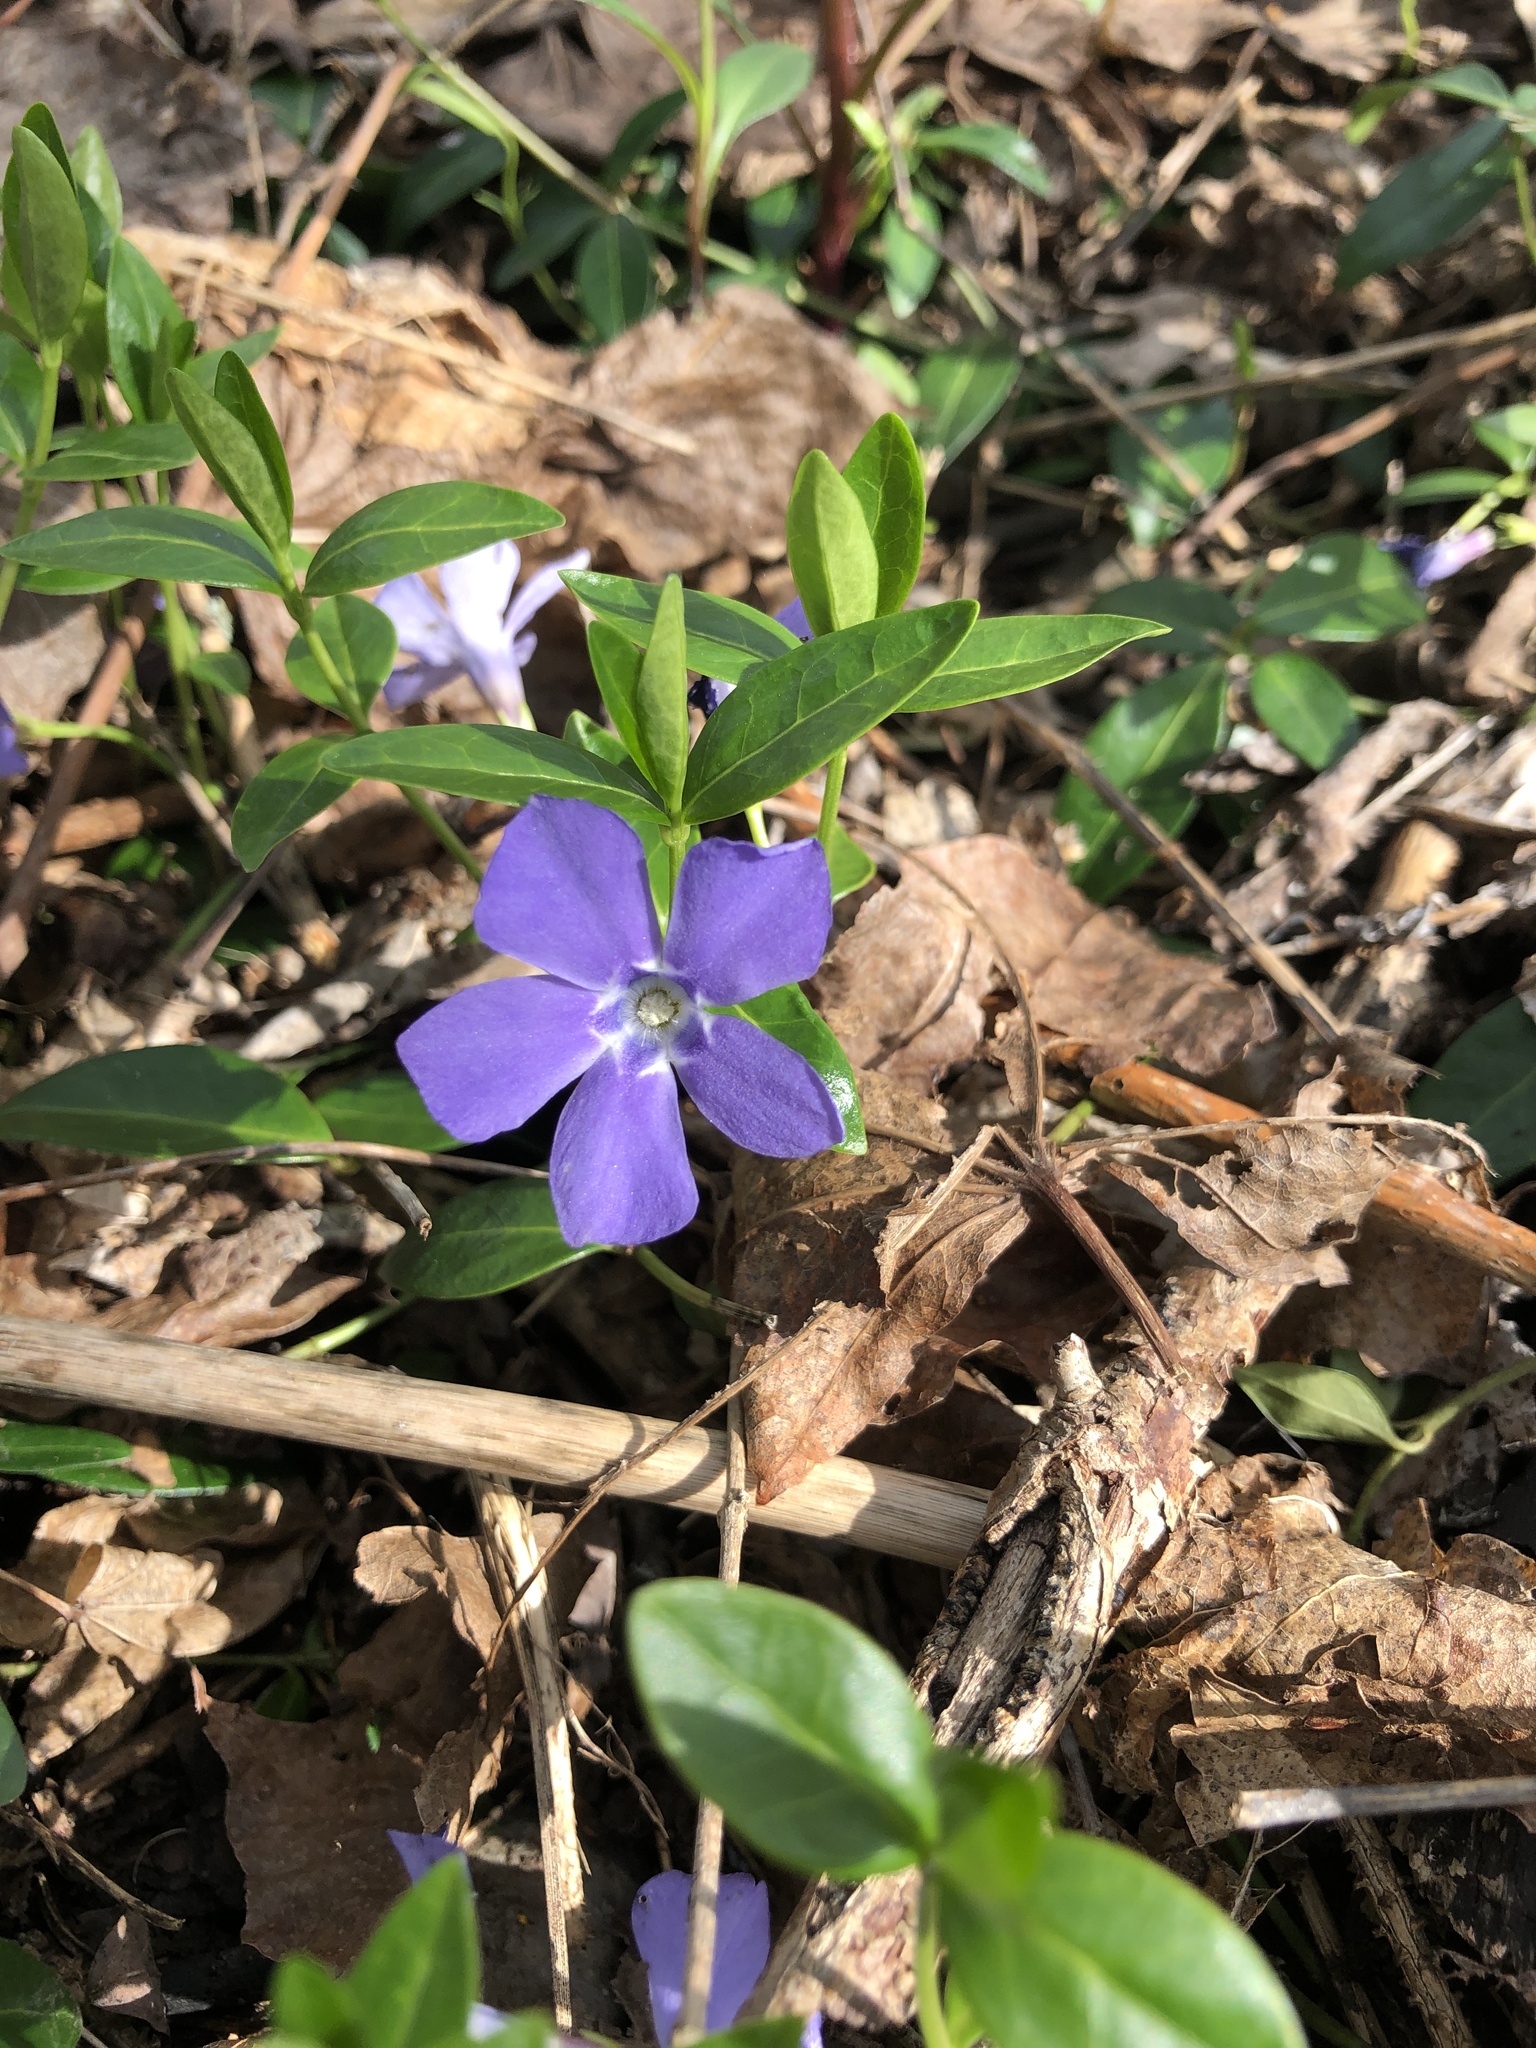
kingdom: Plantae
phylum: Tracheophyta
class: Magnoliopsida
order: Gentianales
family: Apocynaceae
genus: Vinca
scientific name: Vinca minor
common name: Lesser periwinkle
